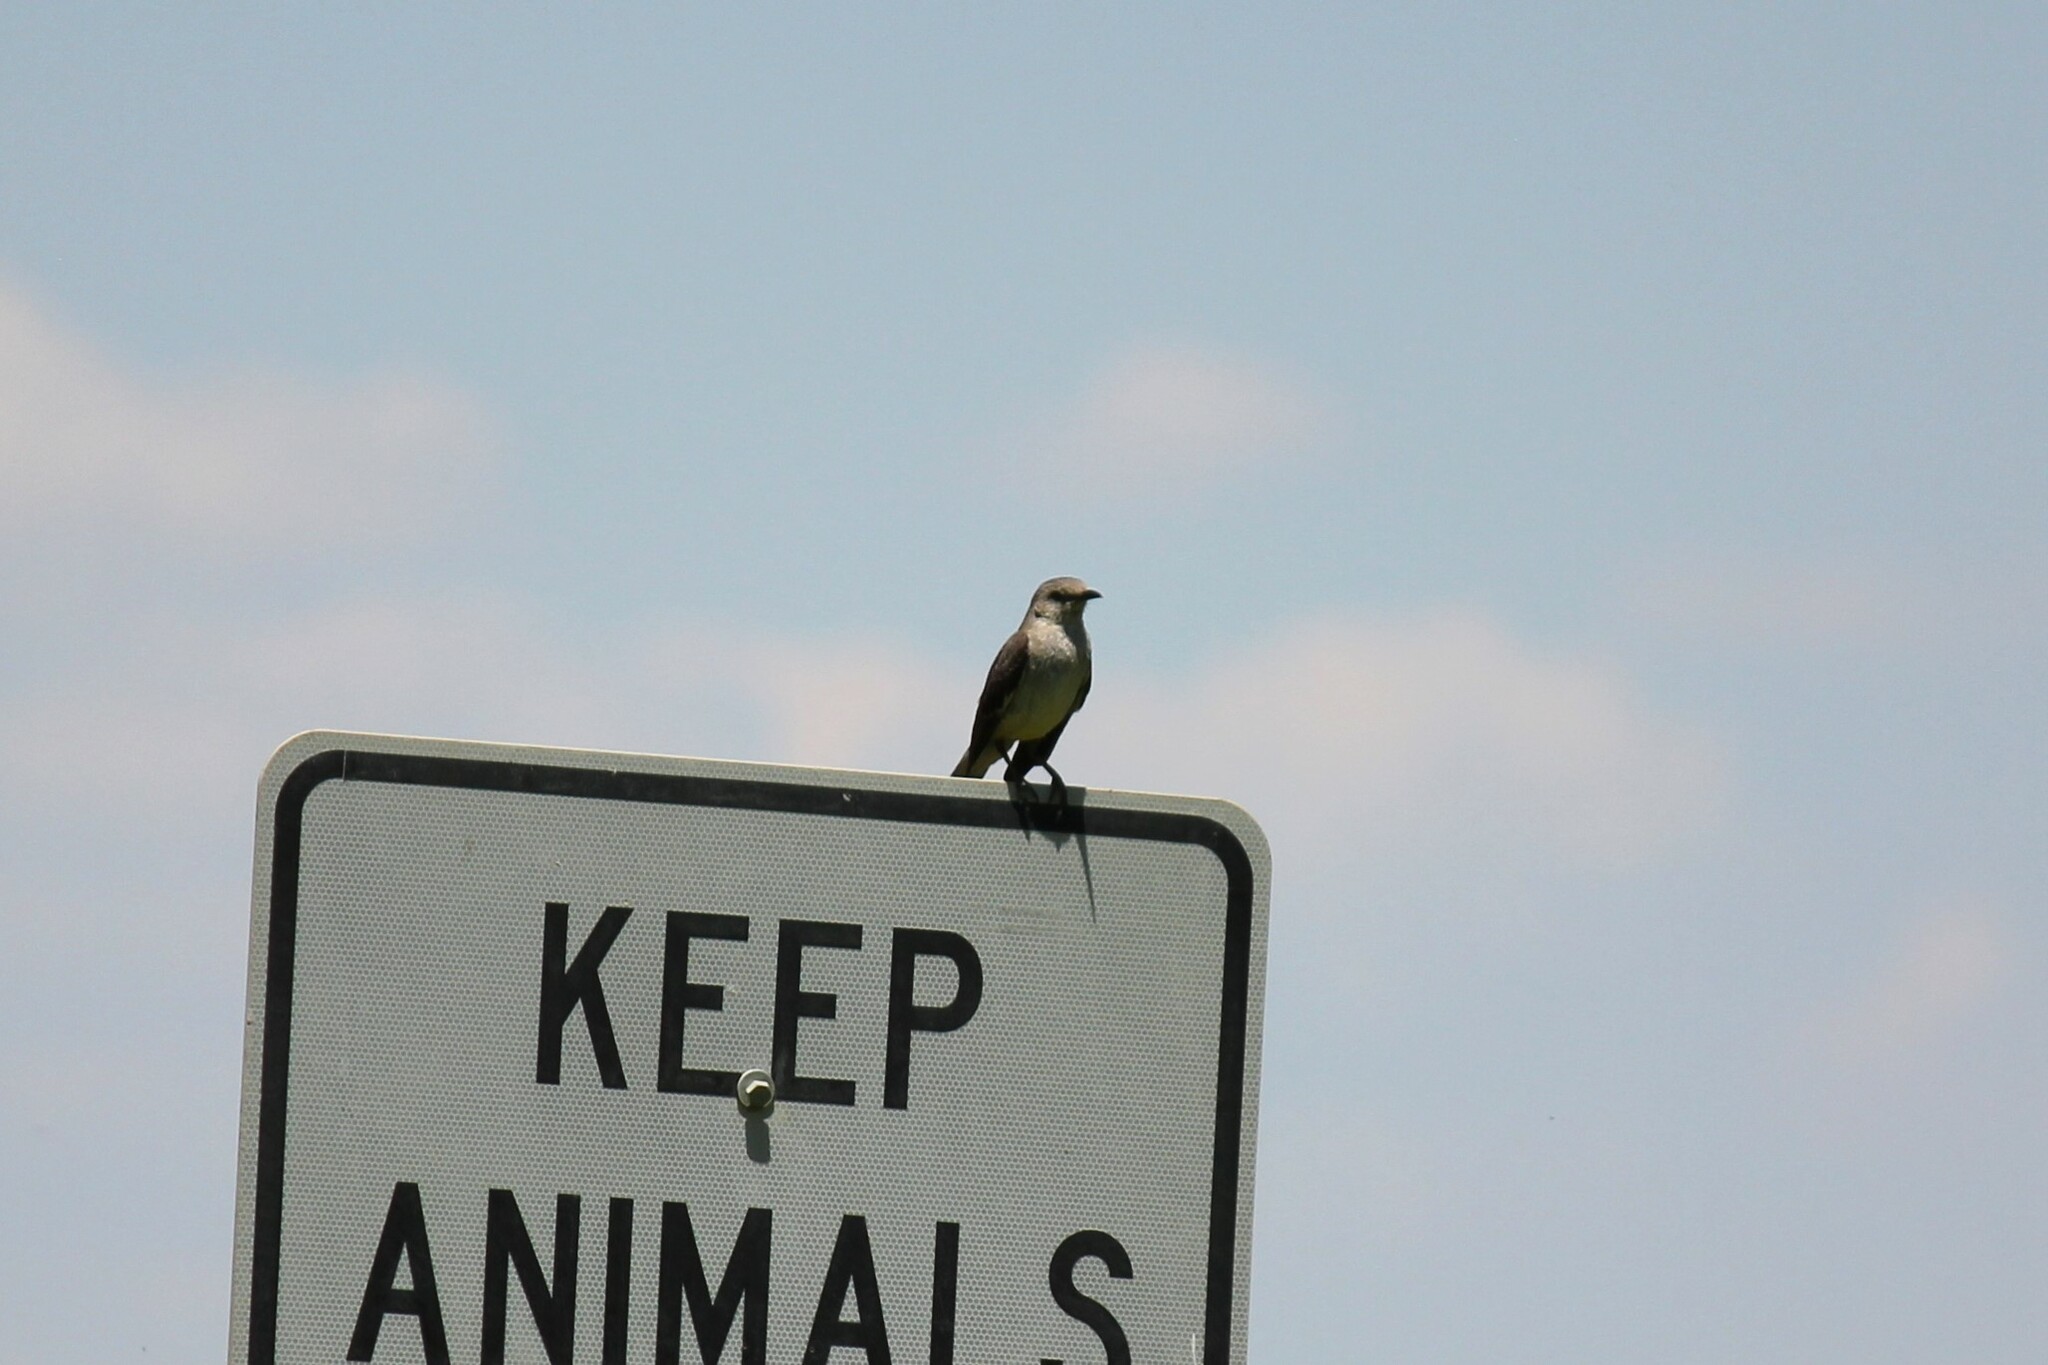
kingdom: Animalia
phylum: Chordata
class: Aves
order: Passeriformes
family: Mimidae
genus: Mimus
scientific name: Mimus polyglottos
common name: Northern mockingbird
